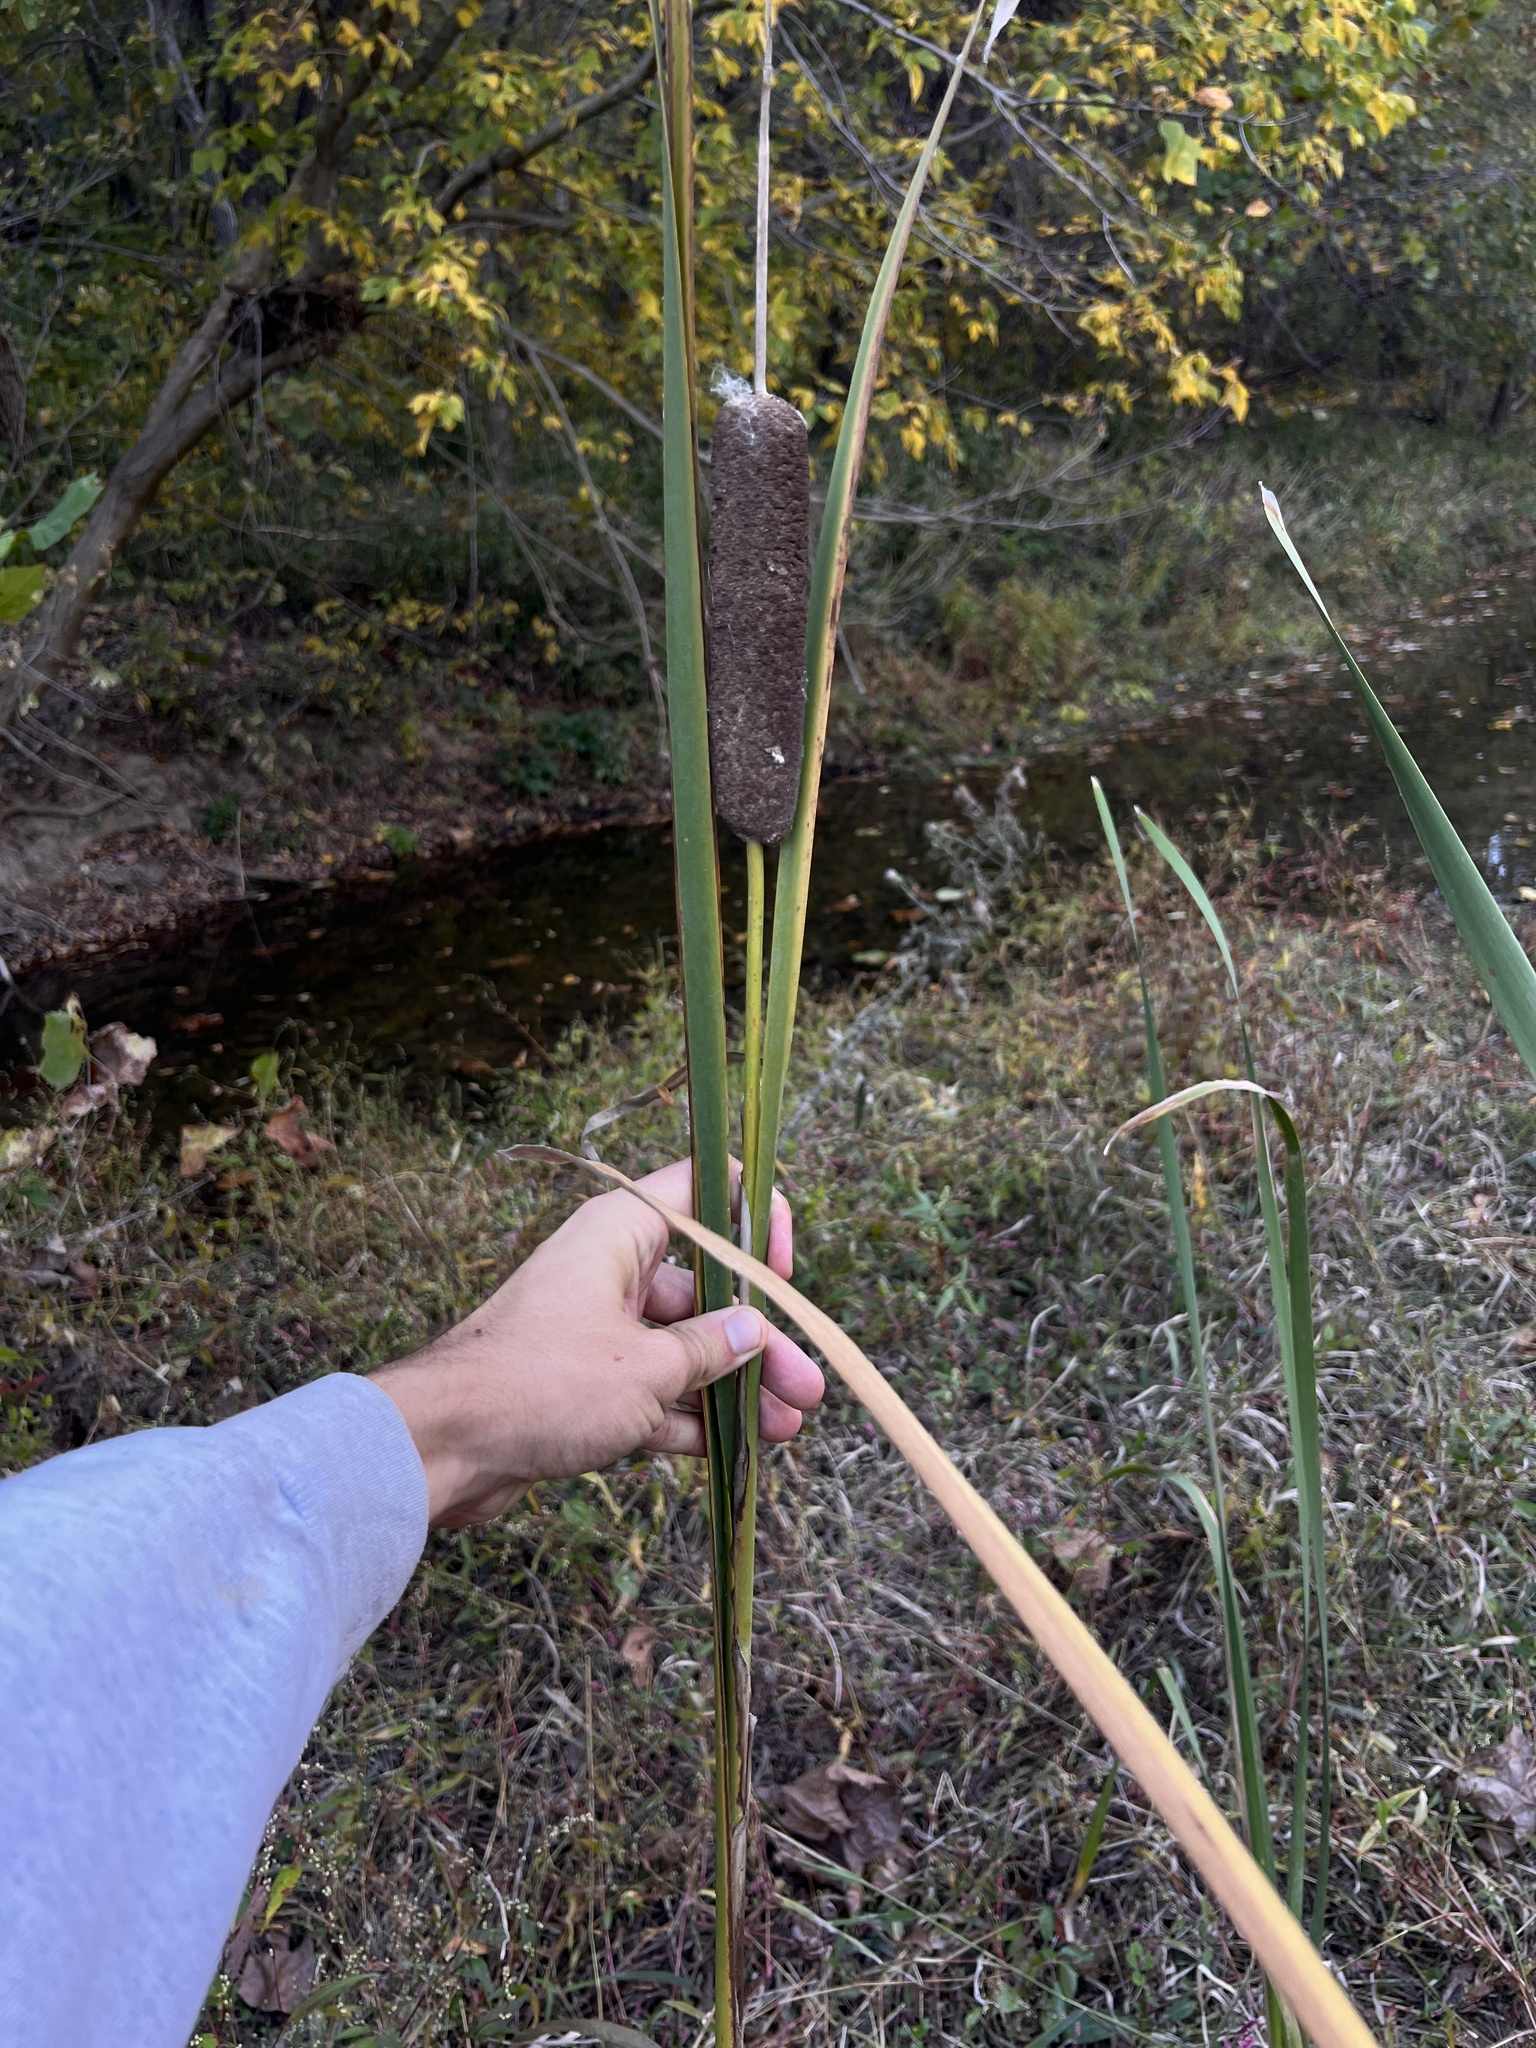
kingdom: Plantae
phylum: Tracheophyta
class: Liliopsida
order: Poales
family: Typhaceae
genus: Typha
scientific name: Typha latifolia
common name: Broadleaf cattail
